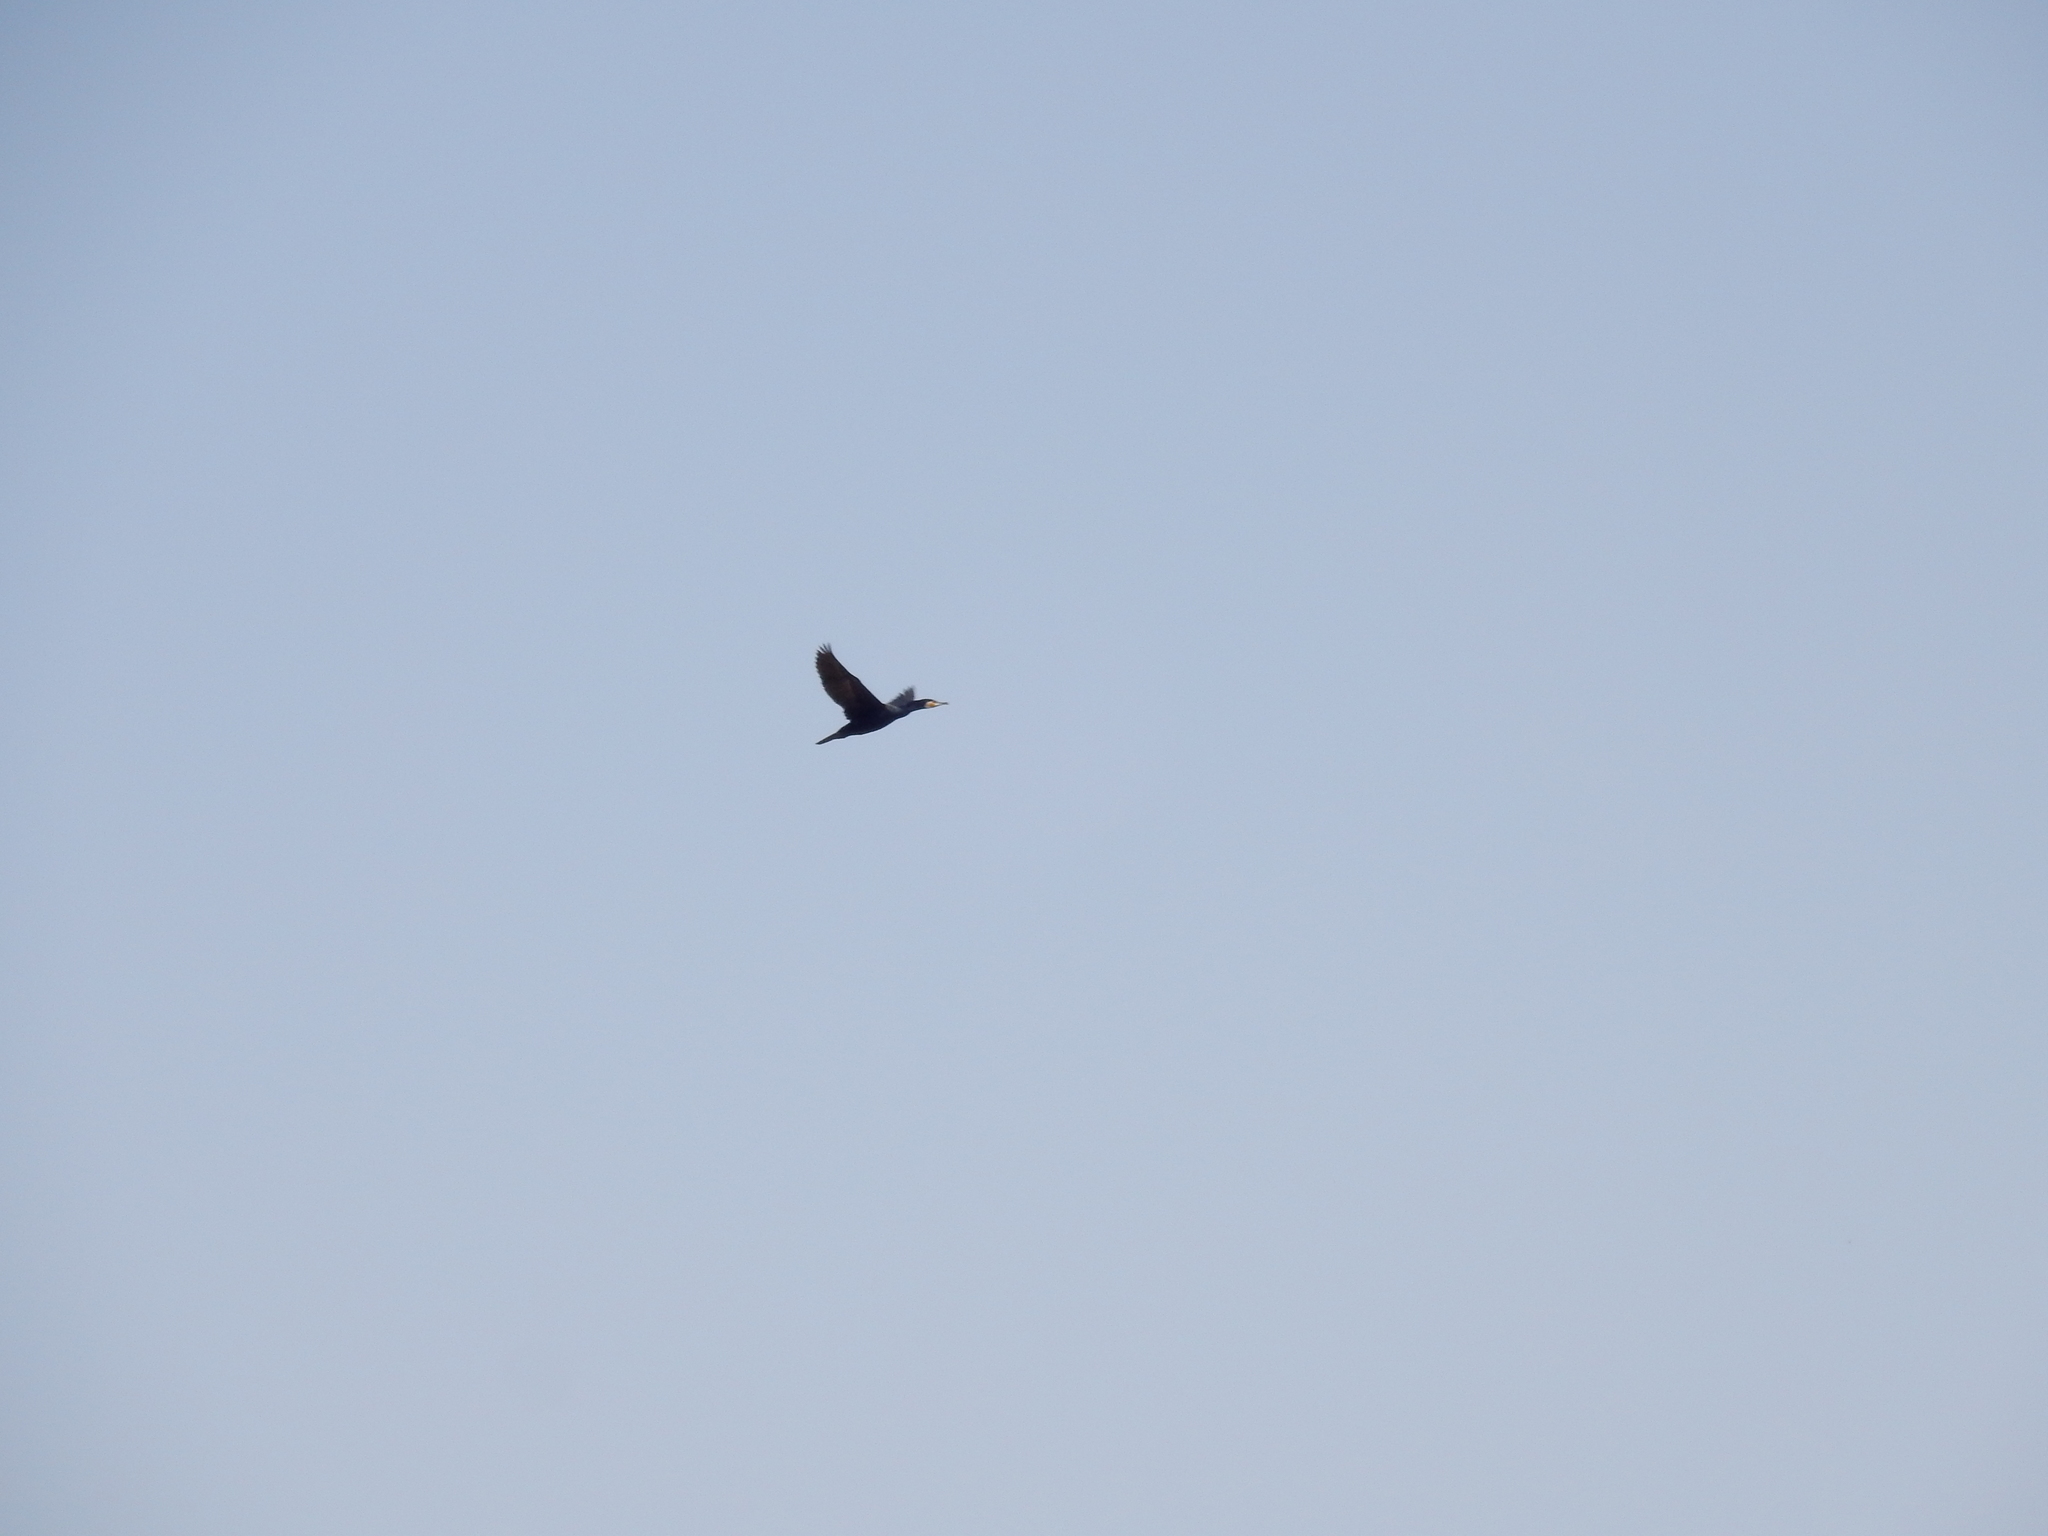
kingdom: Animalia
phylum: Chordata
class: Aves
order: Suliformes
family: Phalacrocoracidae
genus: Phalacrocorax
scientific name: Phalacrocorax carbo
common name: Great cormorant
